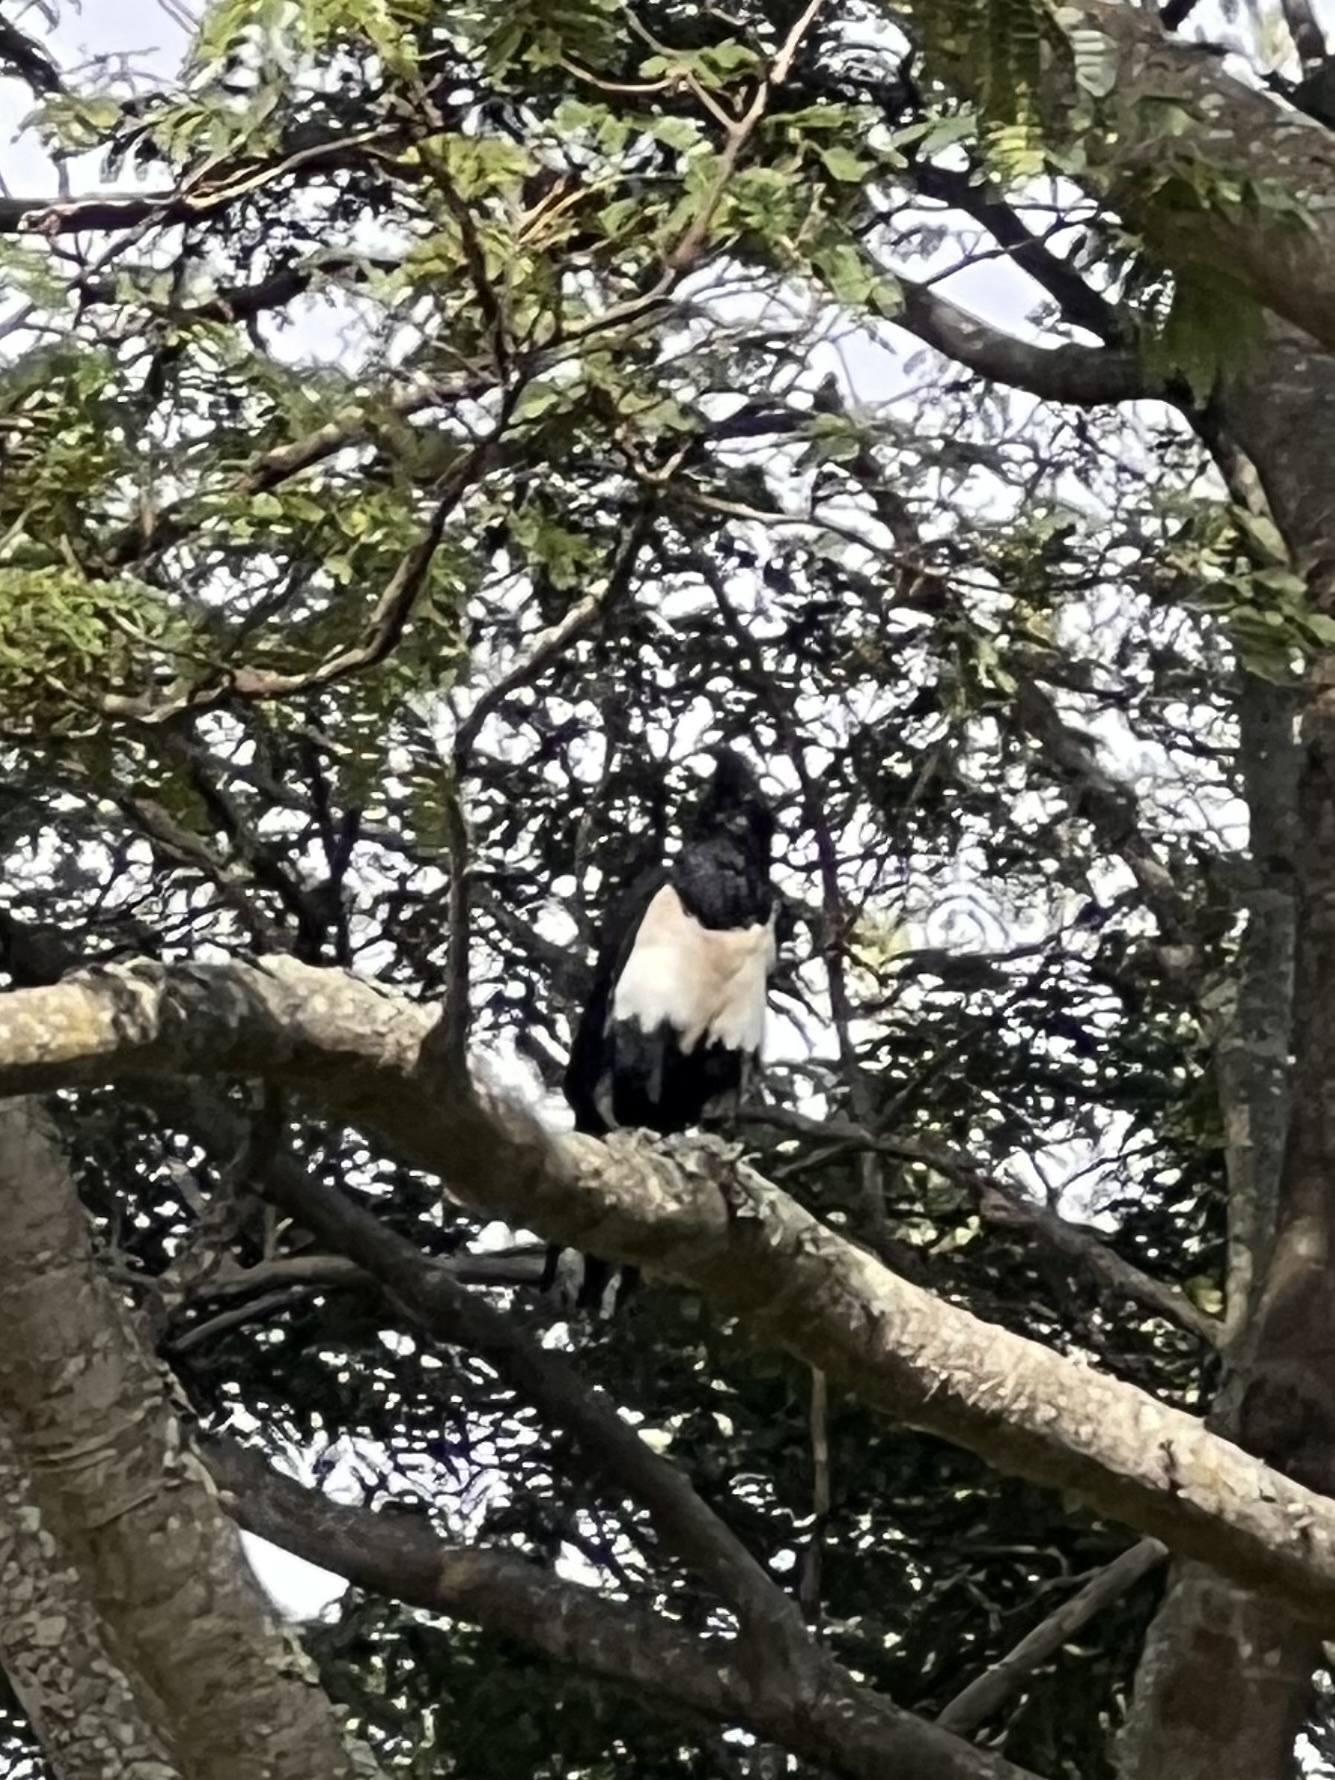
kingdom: Animalia
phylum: Chordata
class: Aves
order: Passeriformes
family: Corvidae
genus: Corvus
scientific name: Corvus albus
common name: Pied crow
